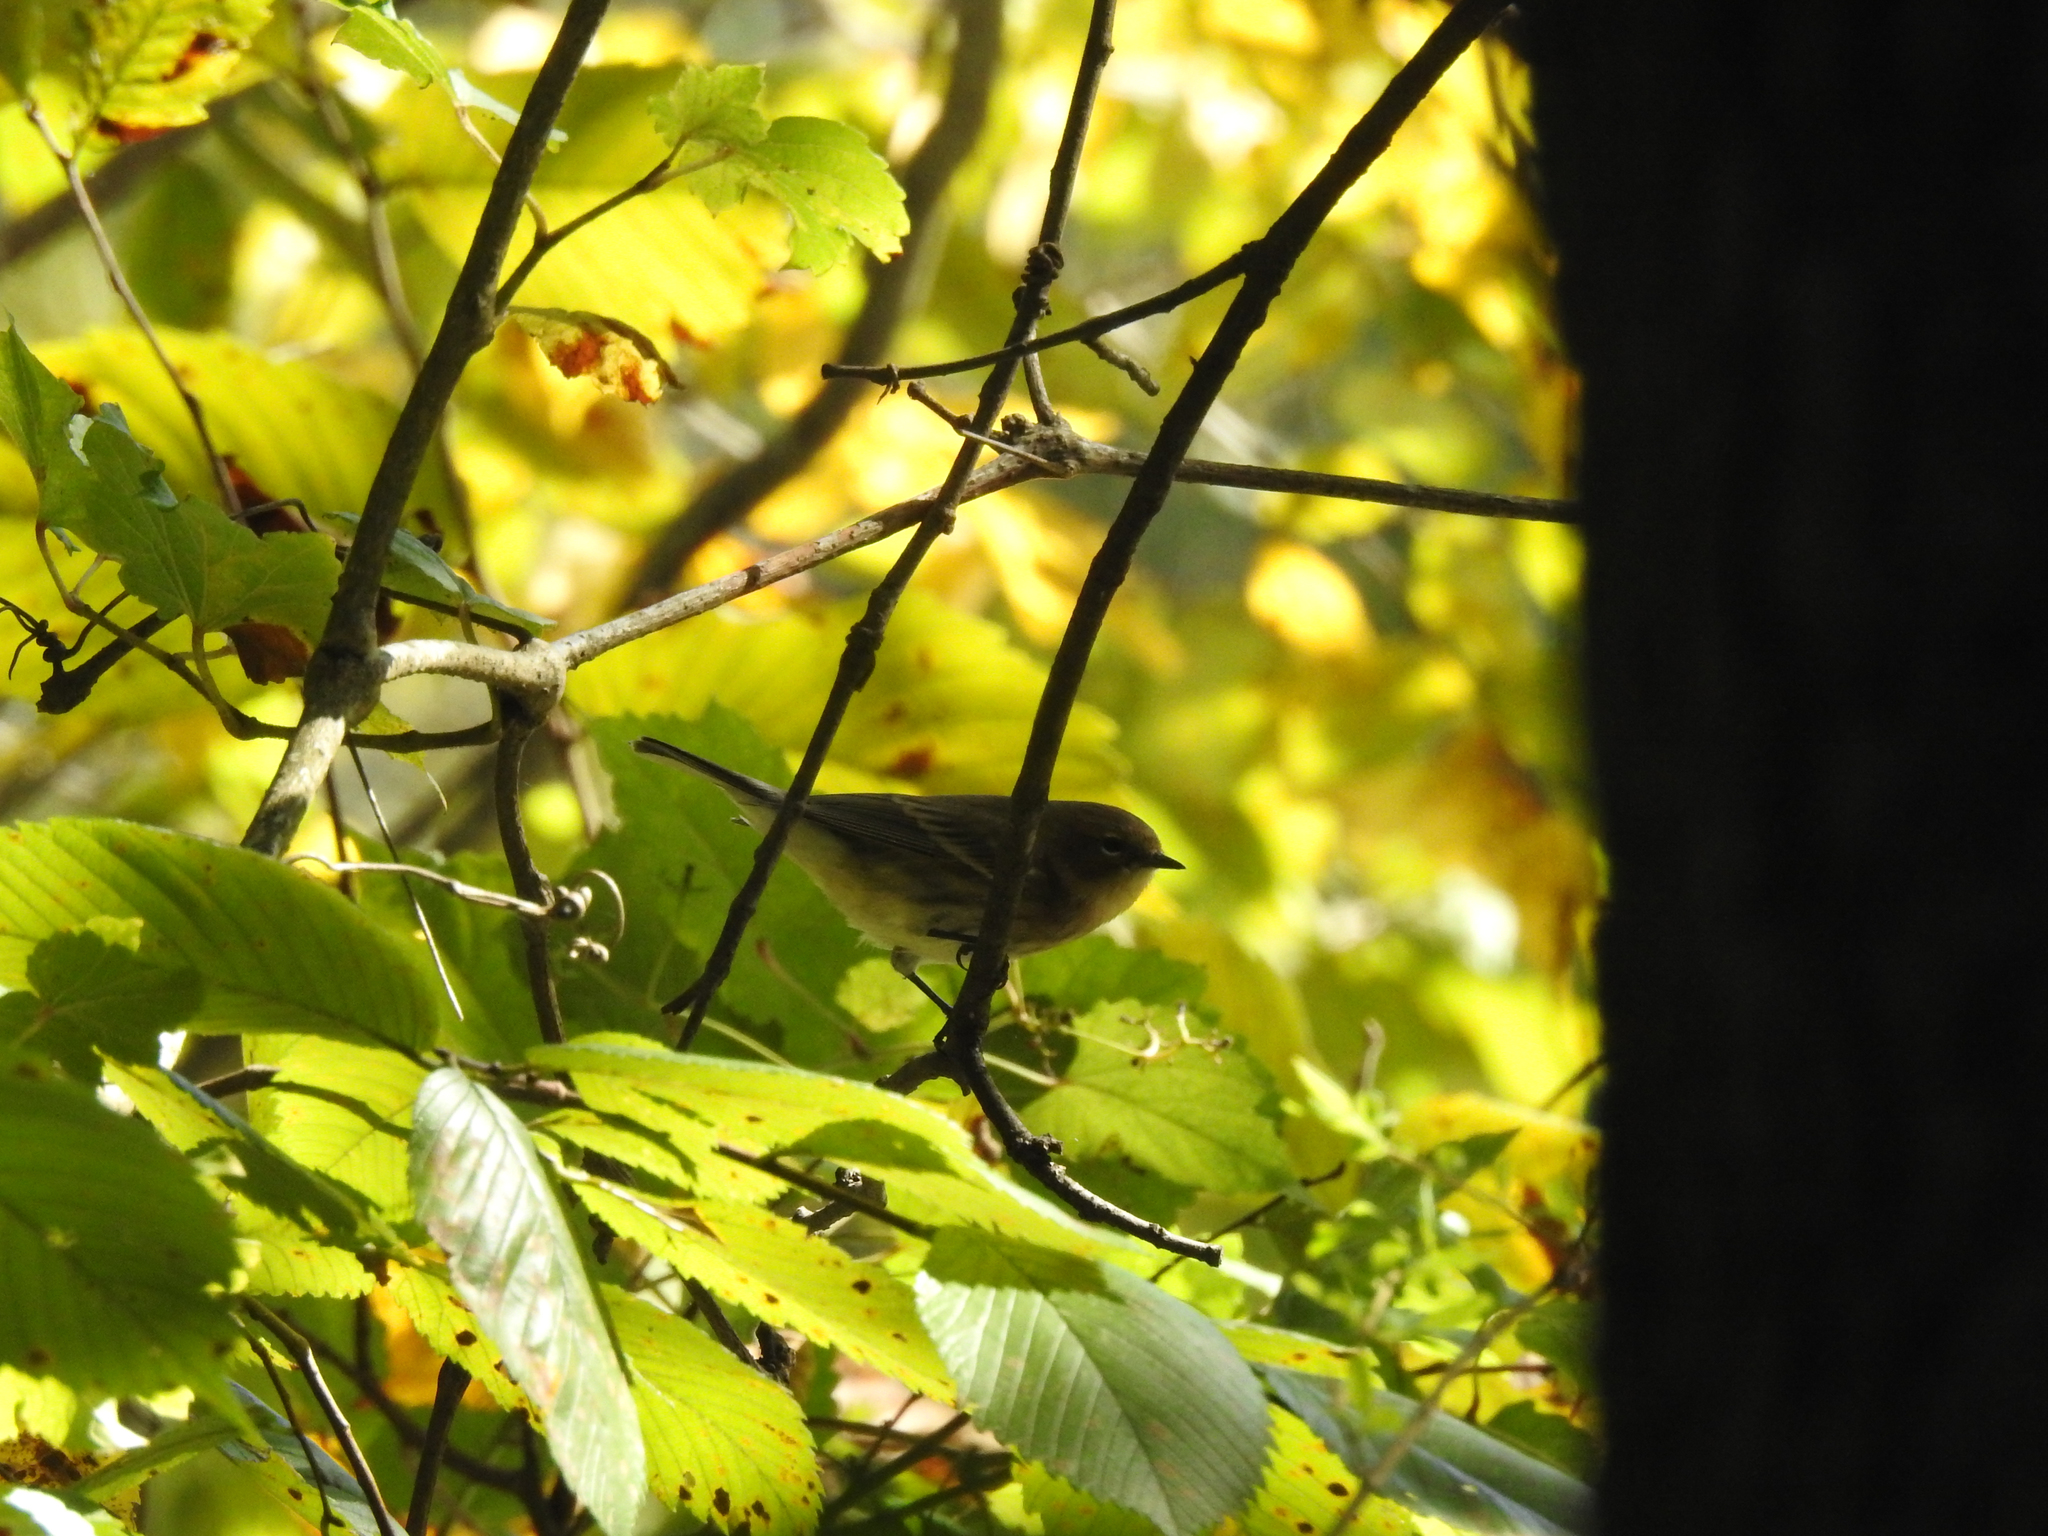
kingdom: Animalia
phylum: Chordata
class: Aves
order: Passeriformes
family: Parulidae
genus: Setophaga
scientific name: Setophaga coronata
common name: Myrtle warbler
